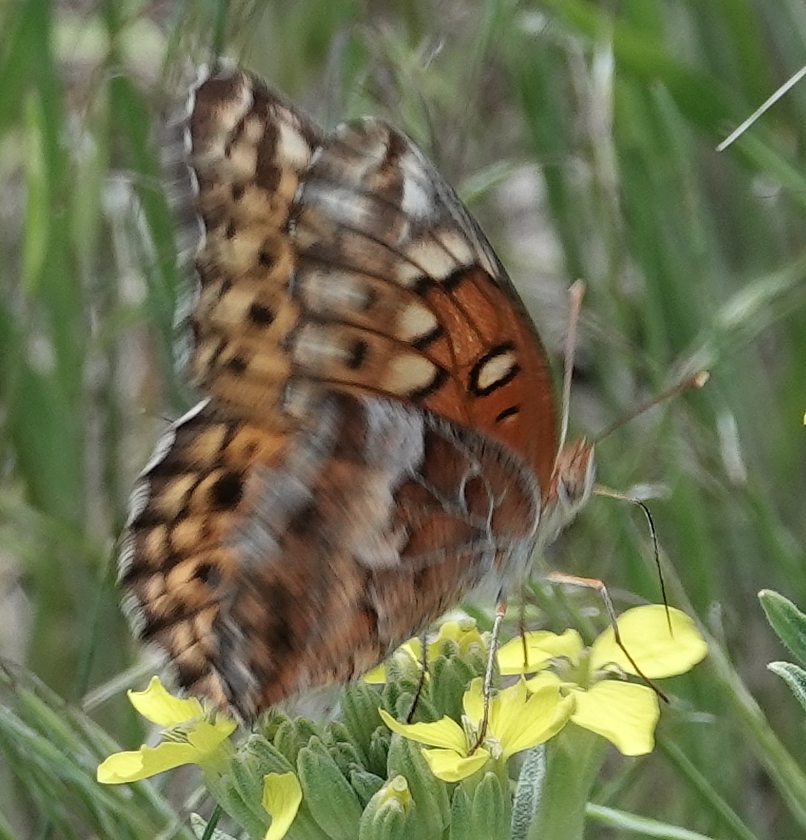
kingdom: Animalia
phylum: Arthropoda
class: Insecta
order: Lepidoptera
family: Nymphalidae
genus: Euptoieta
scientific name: Euptoieta claudia
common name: Variegated fritillary
